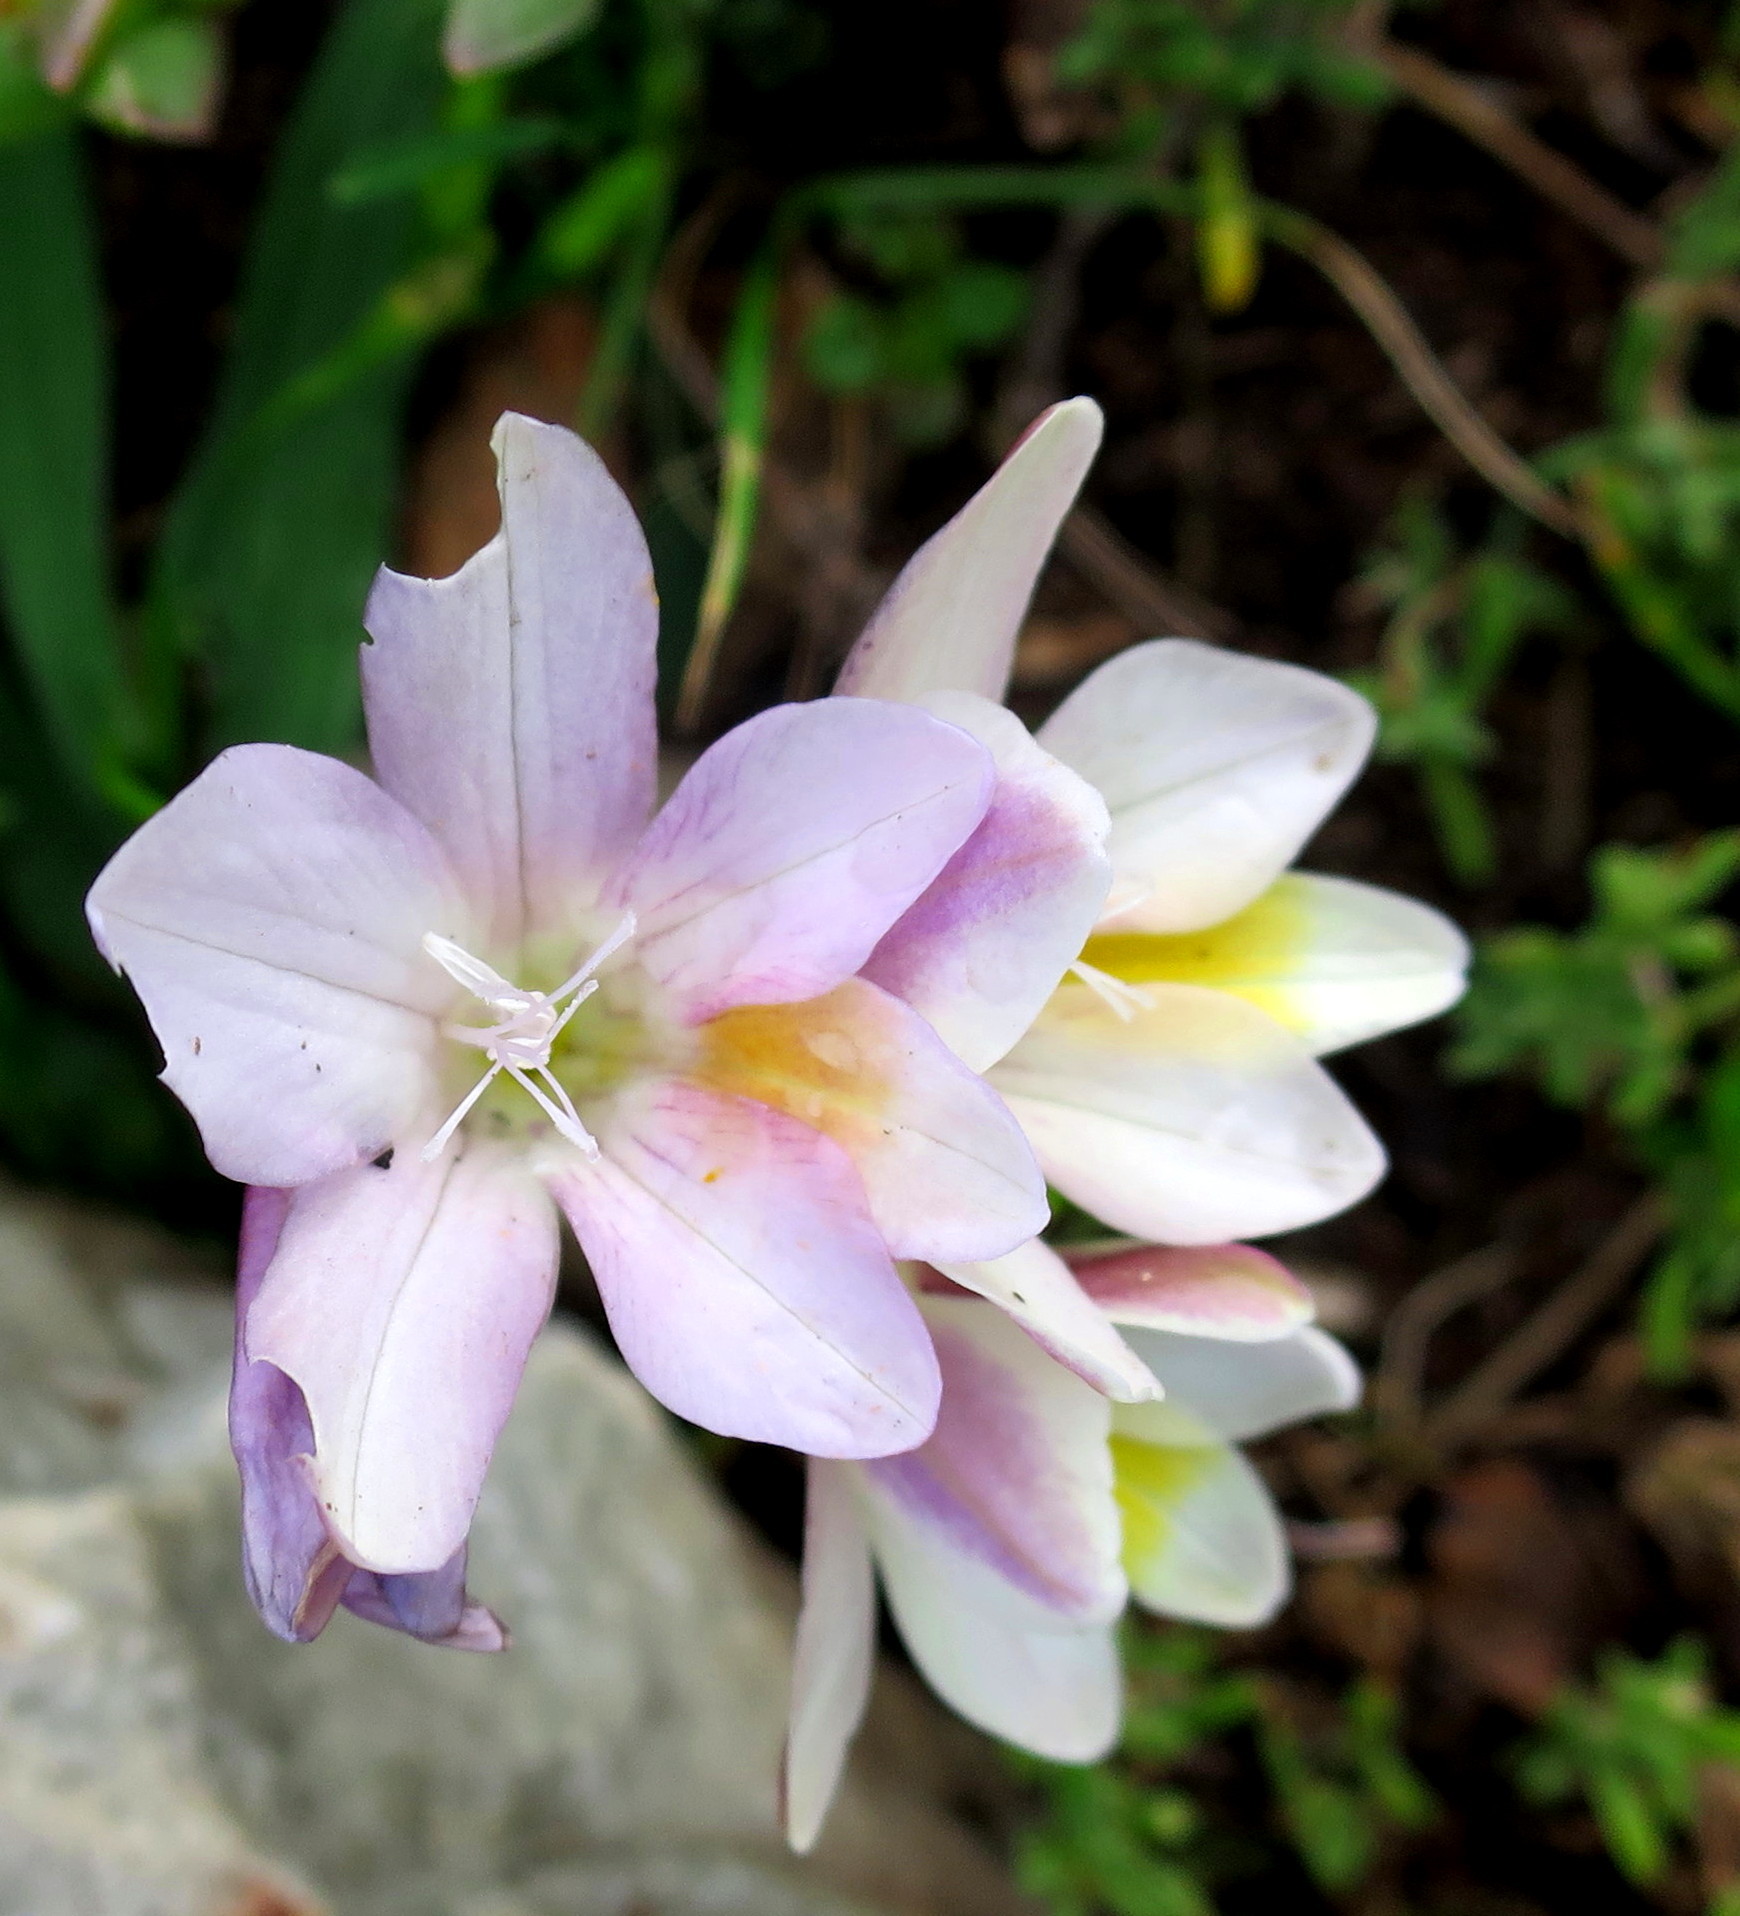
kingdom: Plantae
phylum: Tracheophyta
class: Liliopsida
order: Asparagales
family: Iridaceae
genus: Freesia
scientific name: Freesia leichtlinii
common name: Freesia
